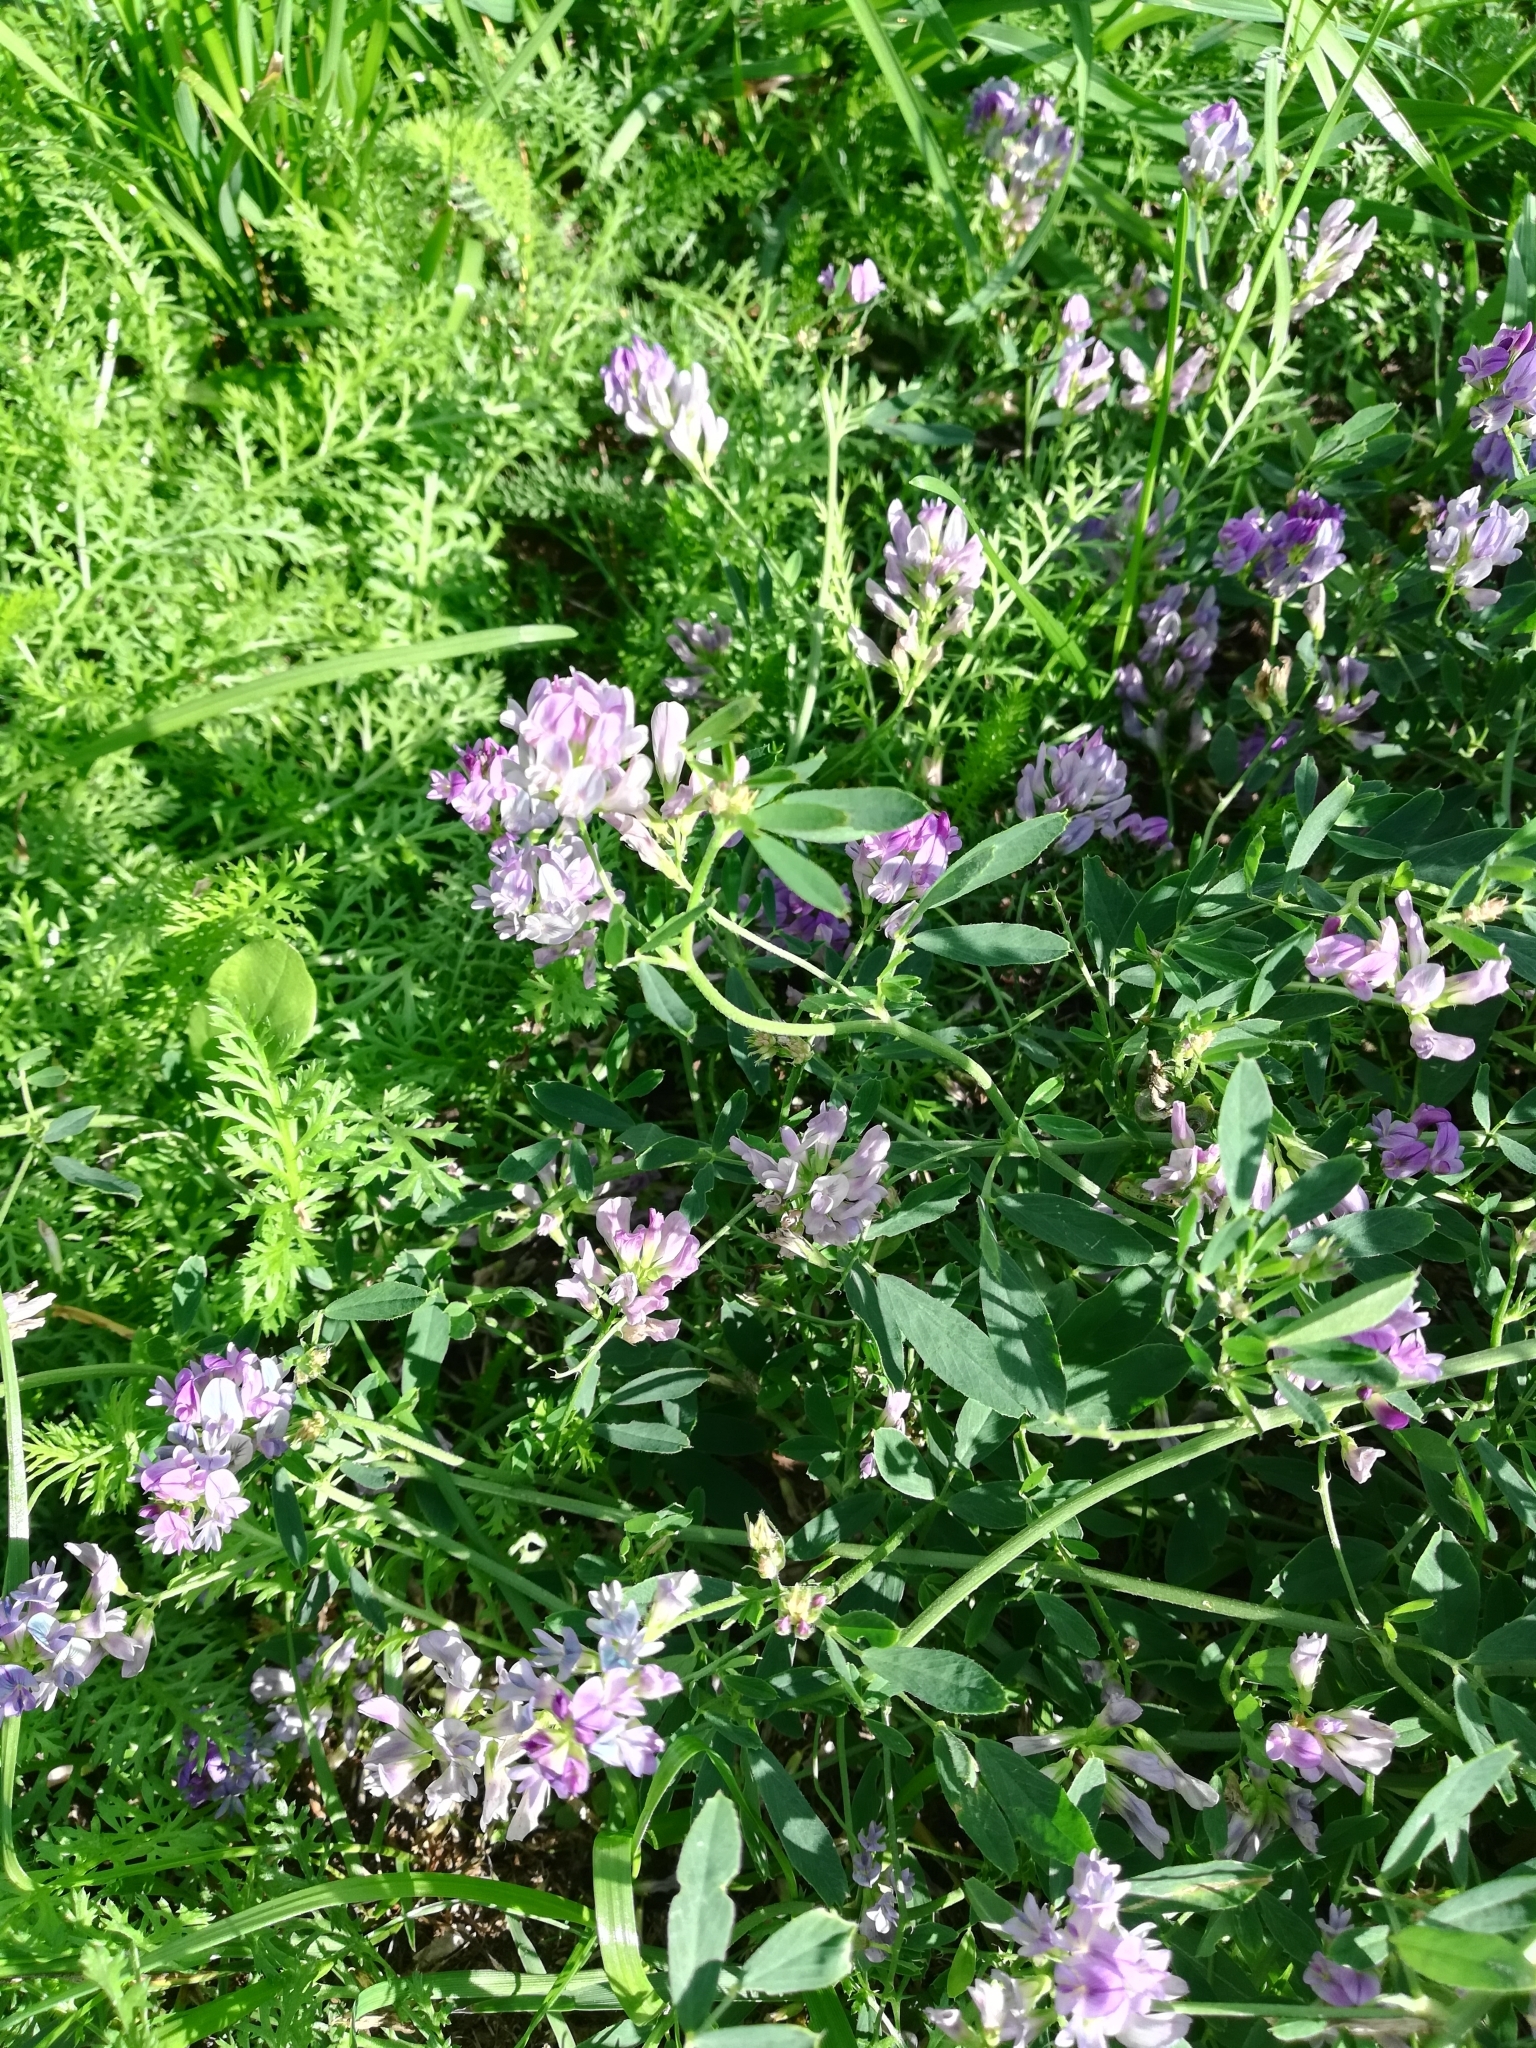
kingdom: Plantae
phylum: Tracheophyta
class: Magnoliopsida
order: Fabales
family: Fabaceae
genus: Medicago
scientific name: Medicago sativa
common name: Alfalfa
